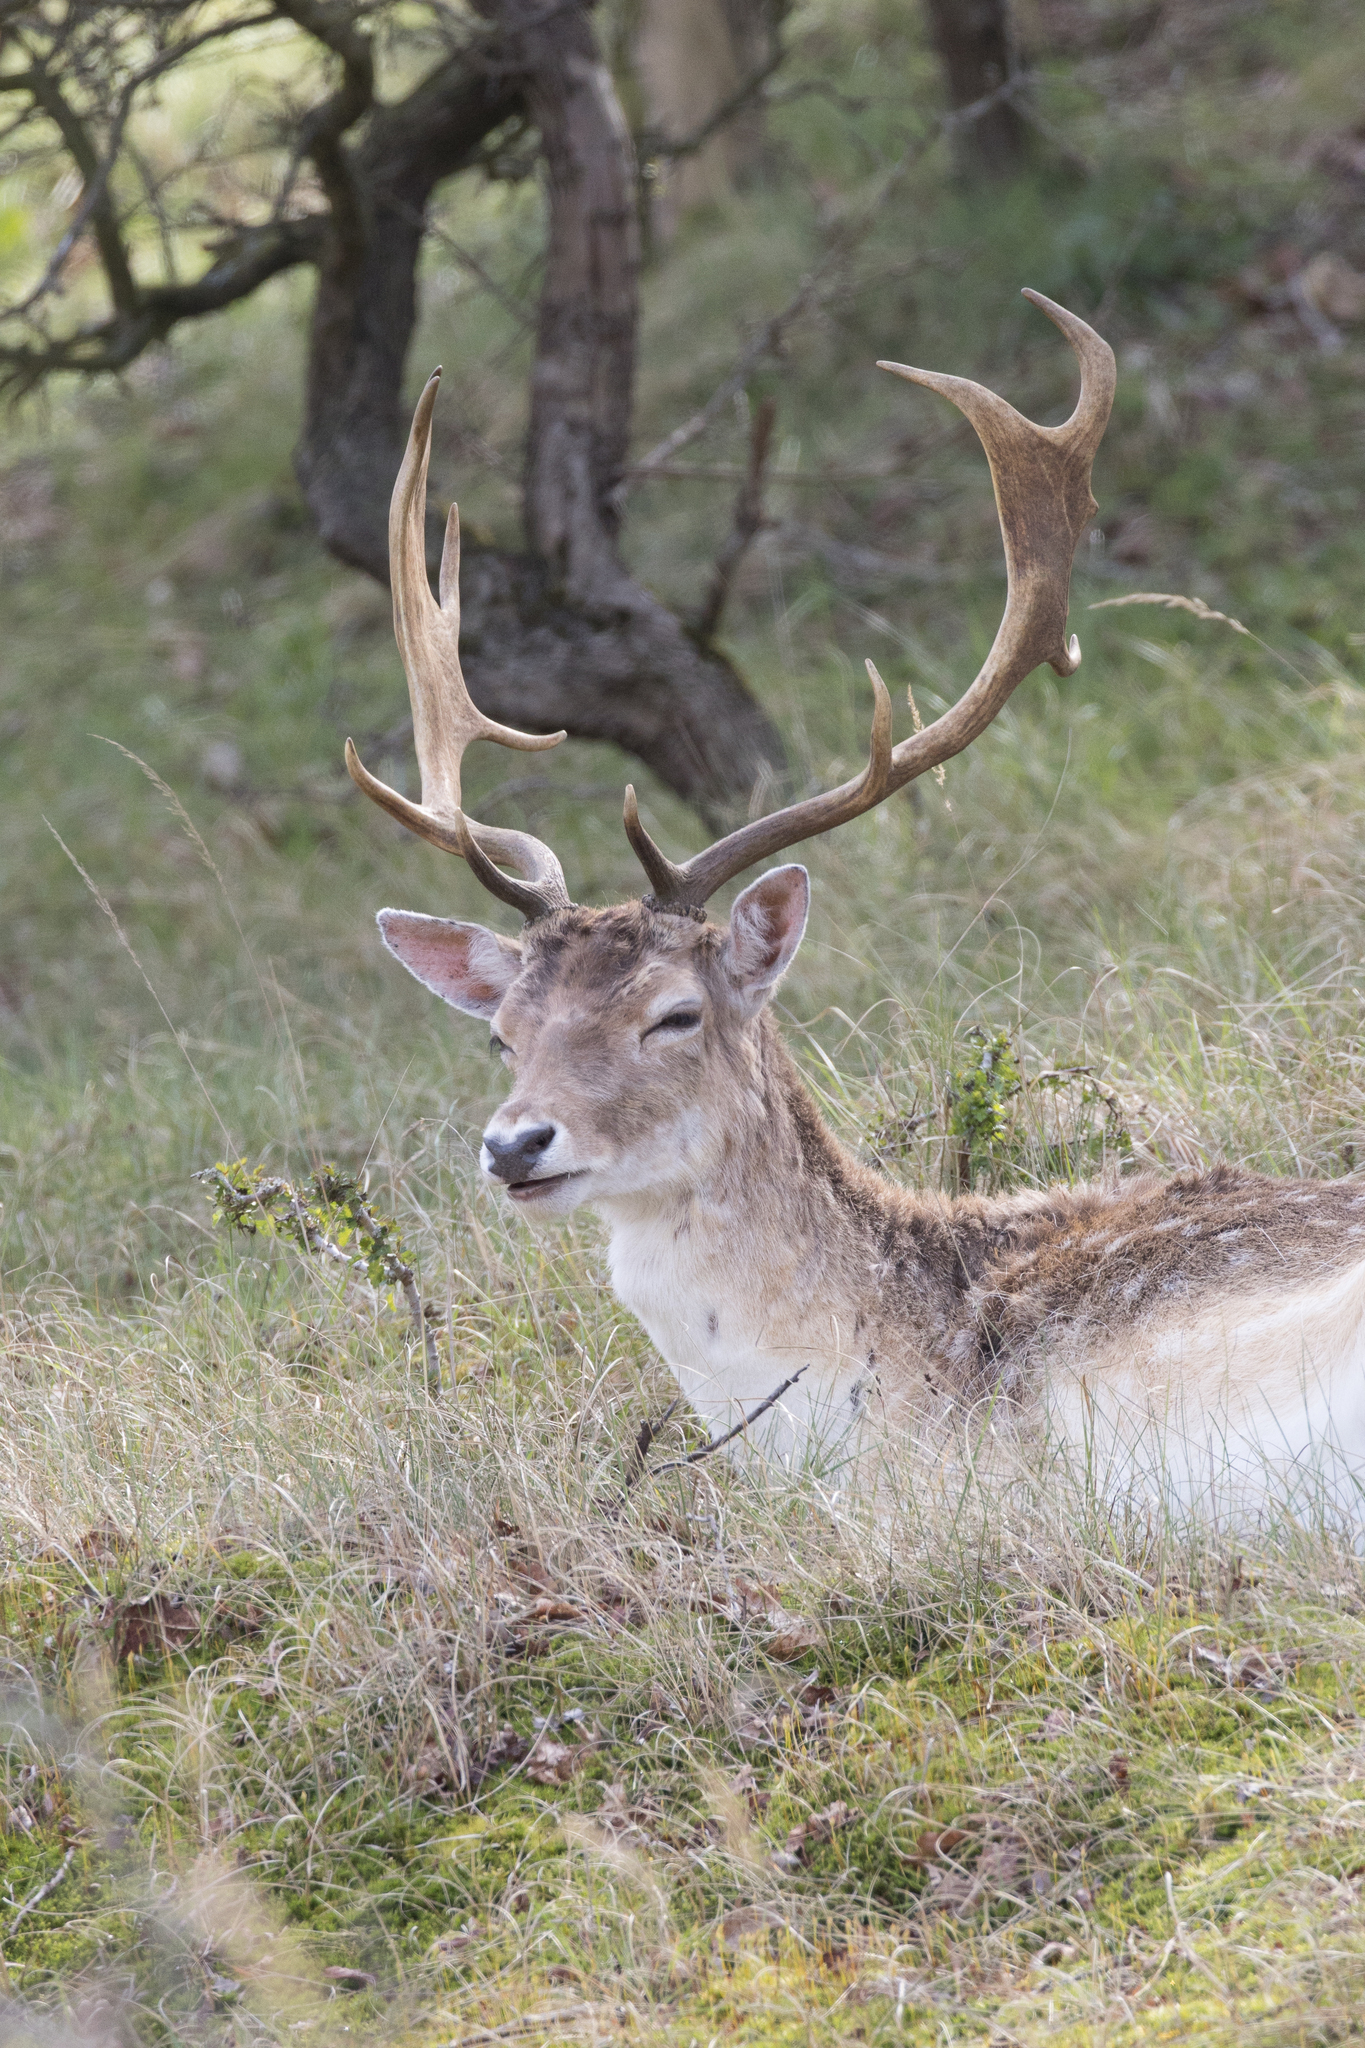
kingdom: Animalia
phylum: Chordata
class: Mammalia
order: Artiodactyla
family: Cervidae
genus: Dama
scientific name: Dama dama
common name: Fallow deer
